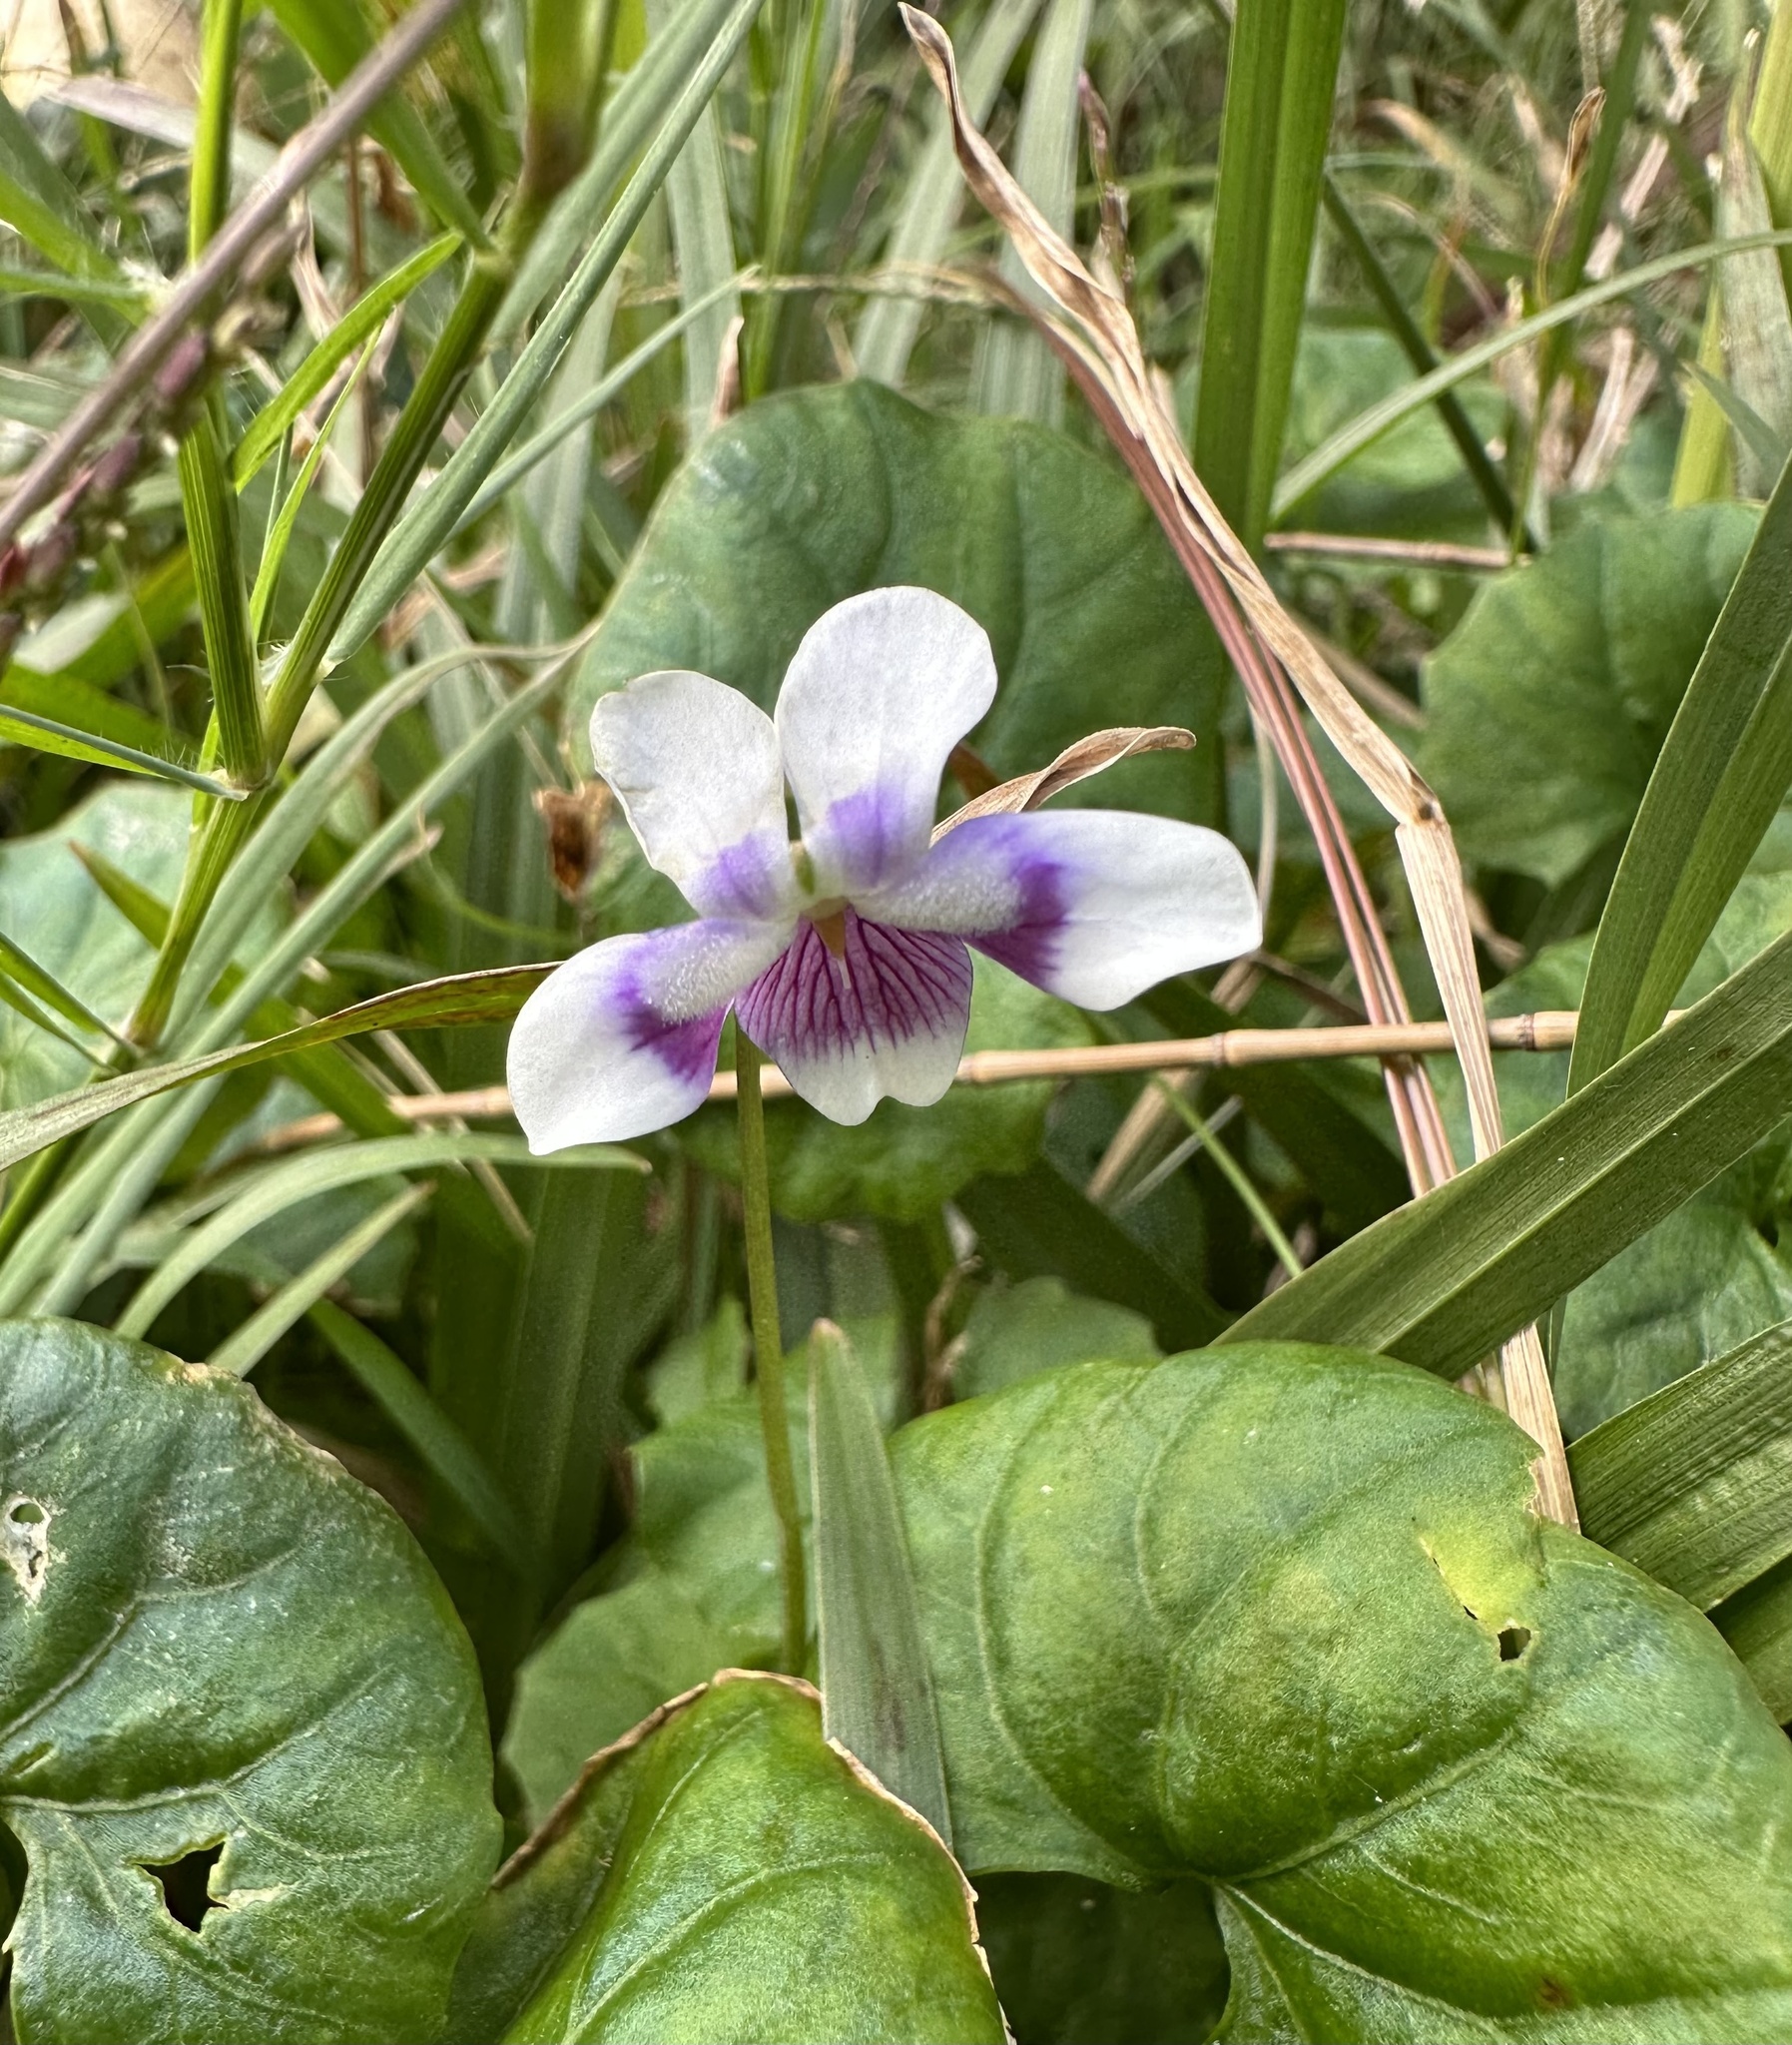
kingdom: Plantae
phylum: Tracheophyta
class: Magnoliopsida
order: Malpighiales
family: Violaceae
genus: Viola
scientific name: Viola banksii
